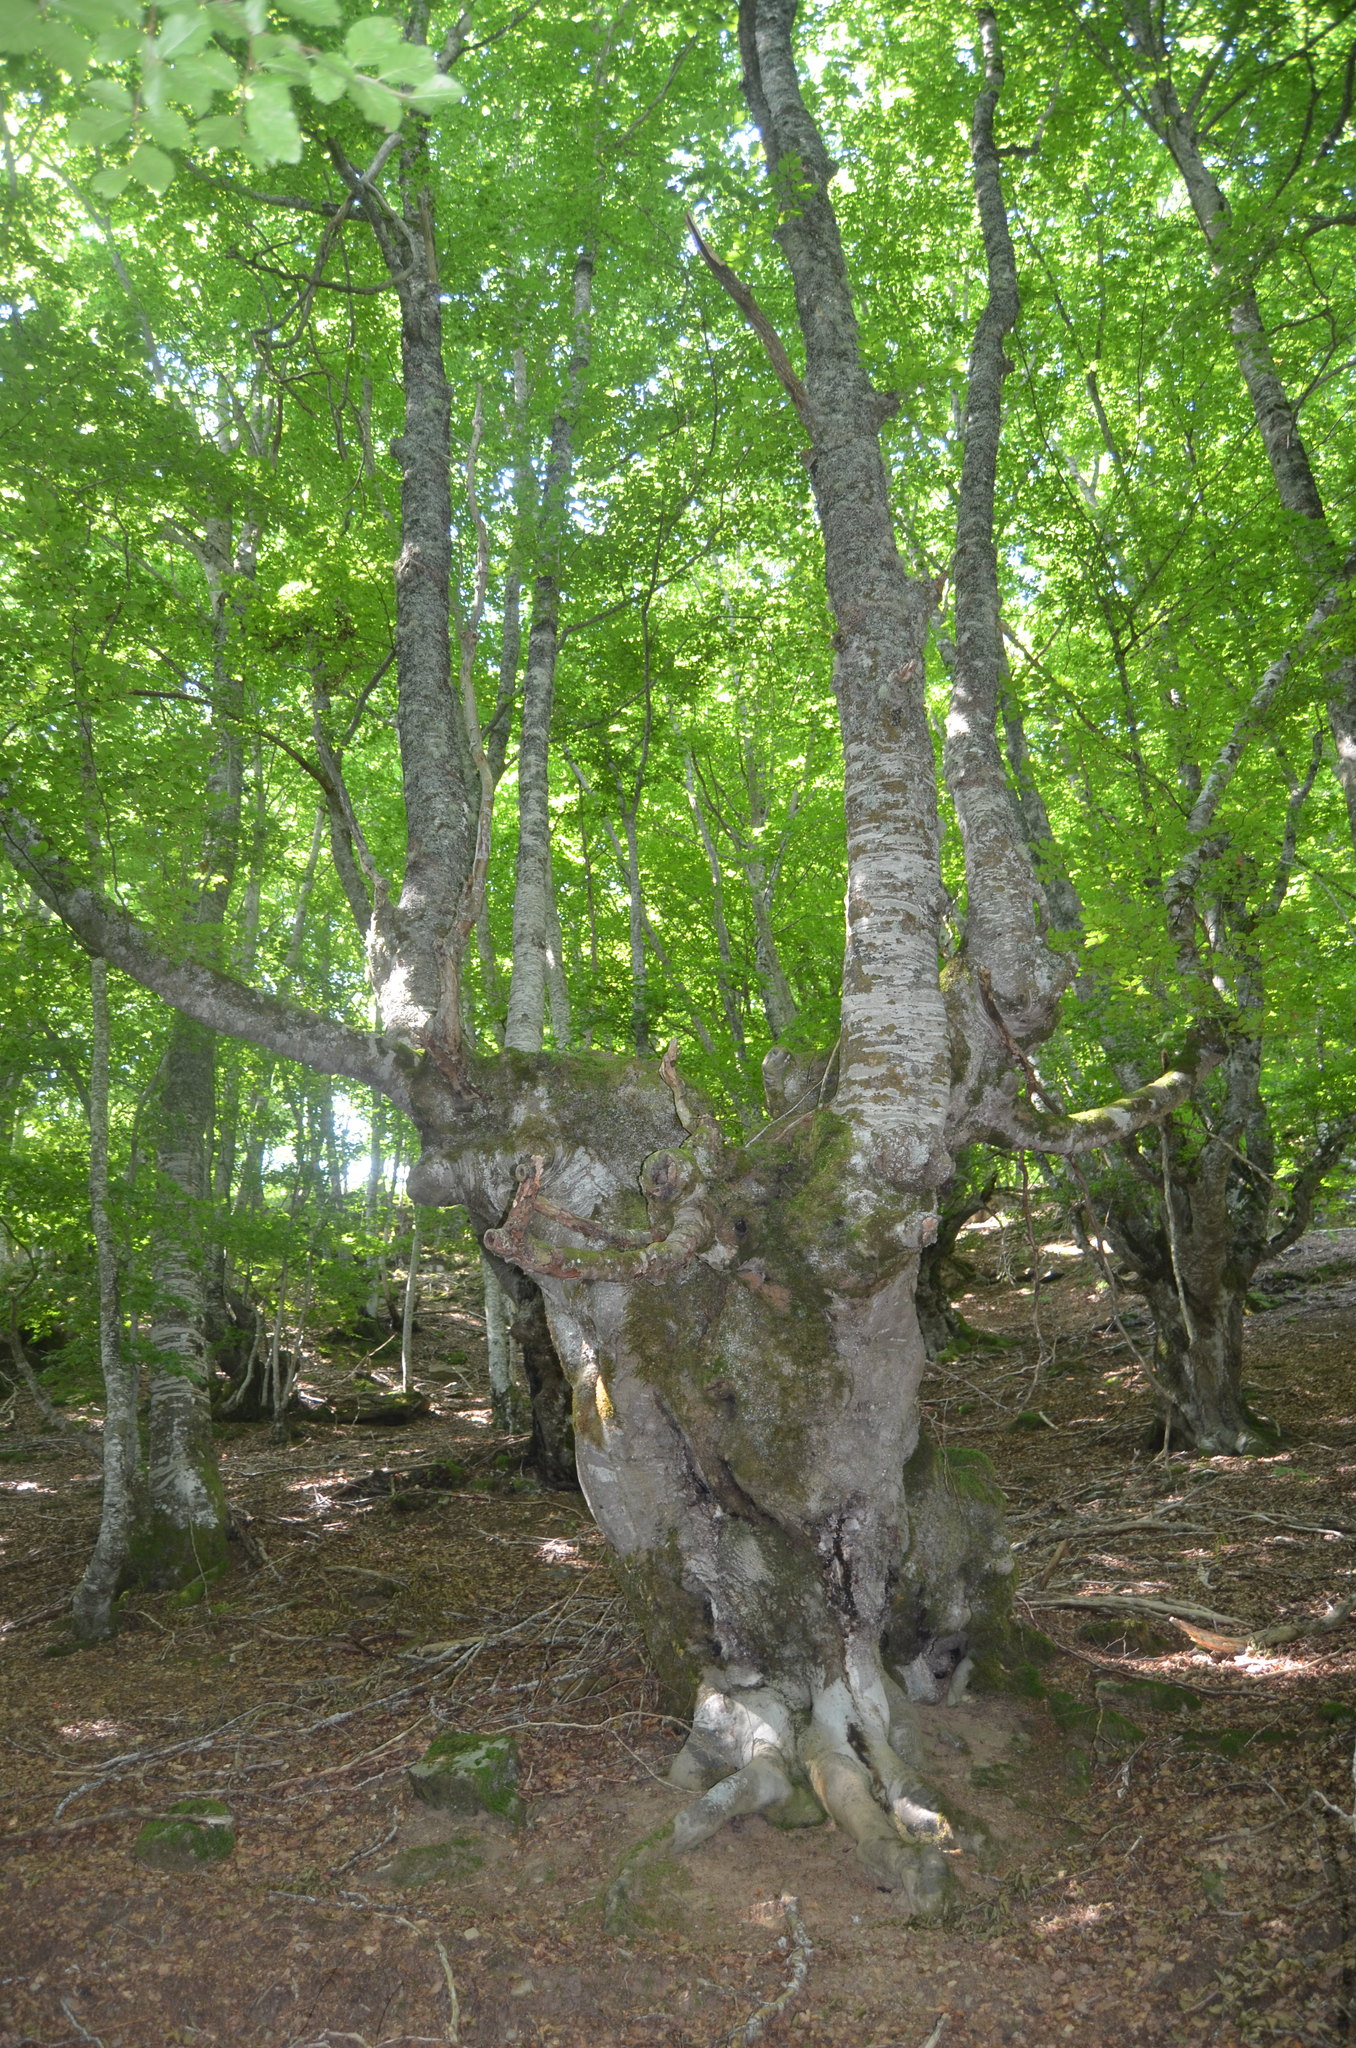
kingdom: Plantae
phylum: Tracheophyta
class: Magnoliopsida
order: Fagales
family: Fagaceae
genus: Fagus
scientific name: Fagus sylvatica
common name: Beech
